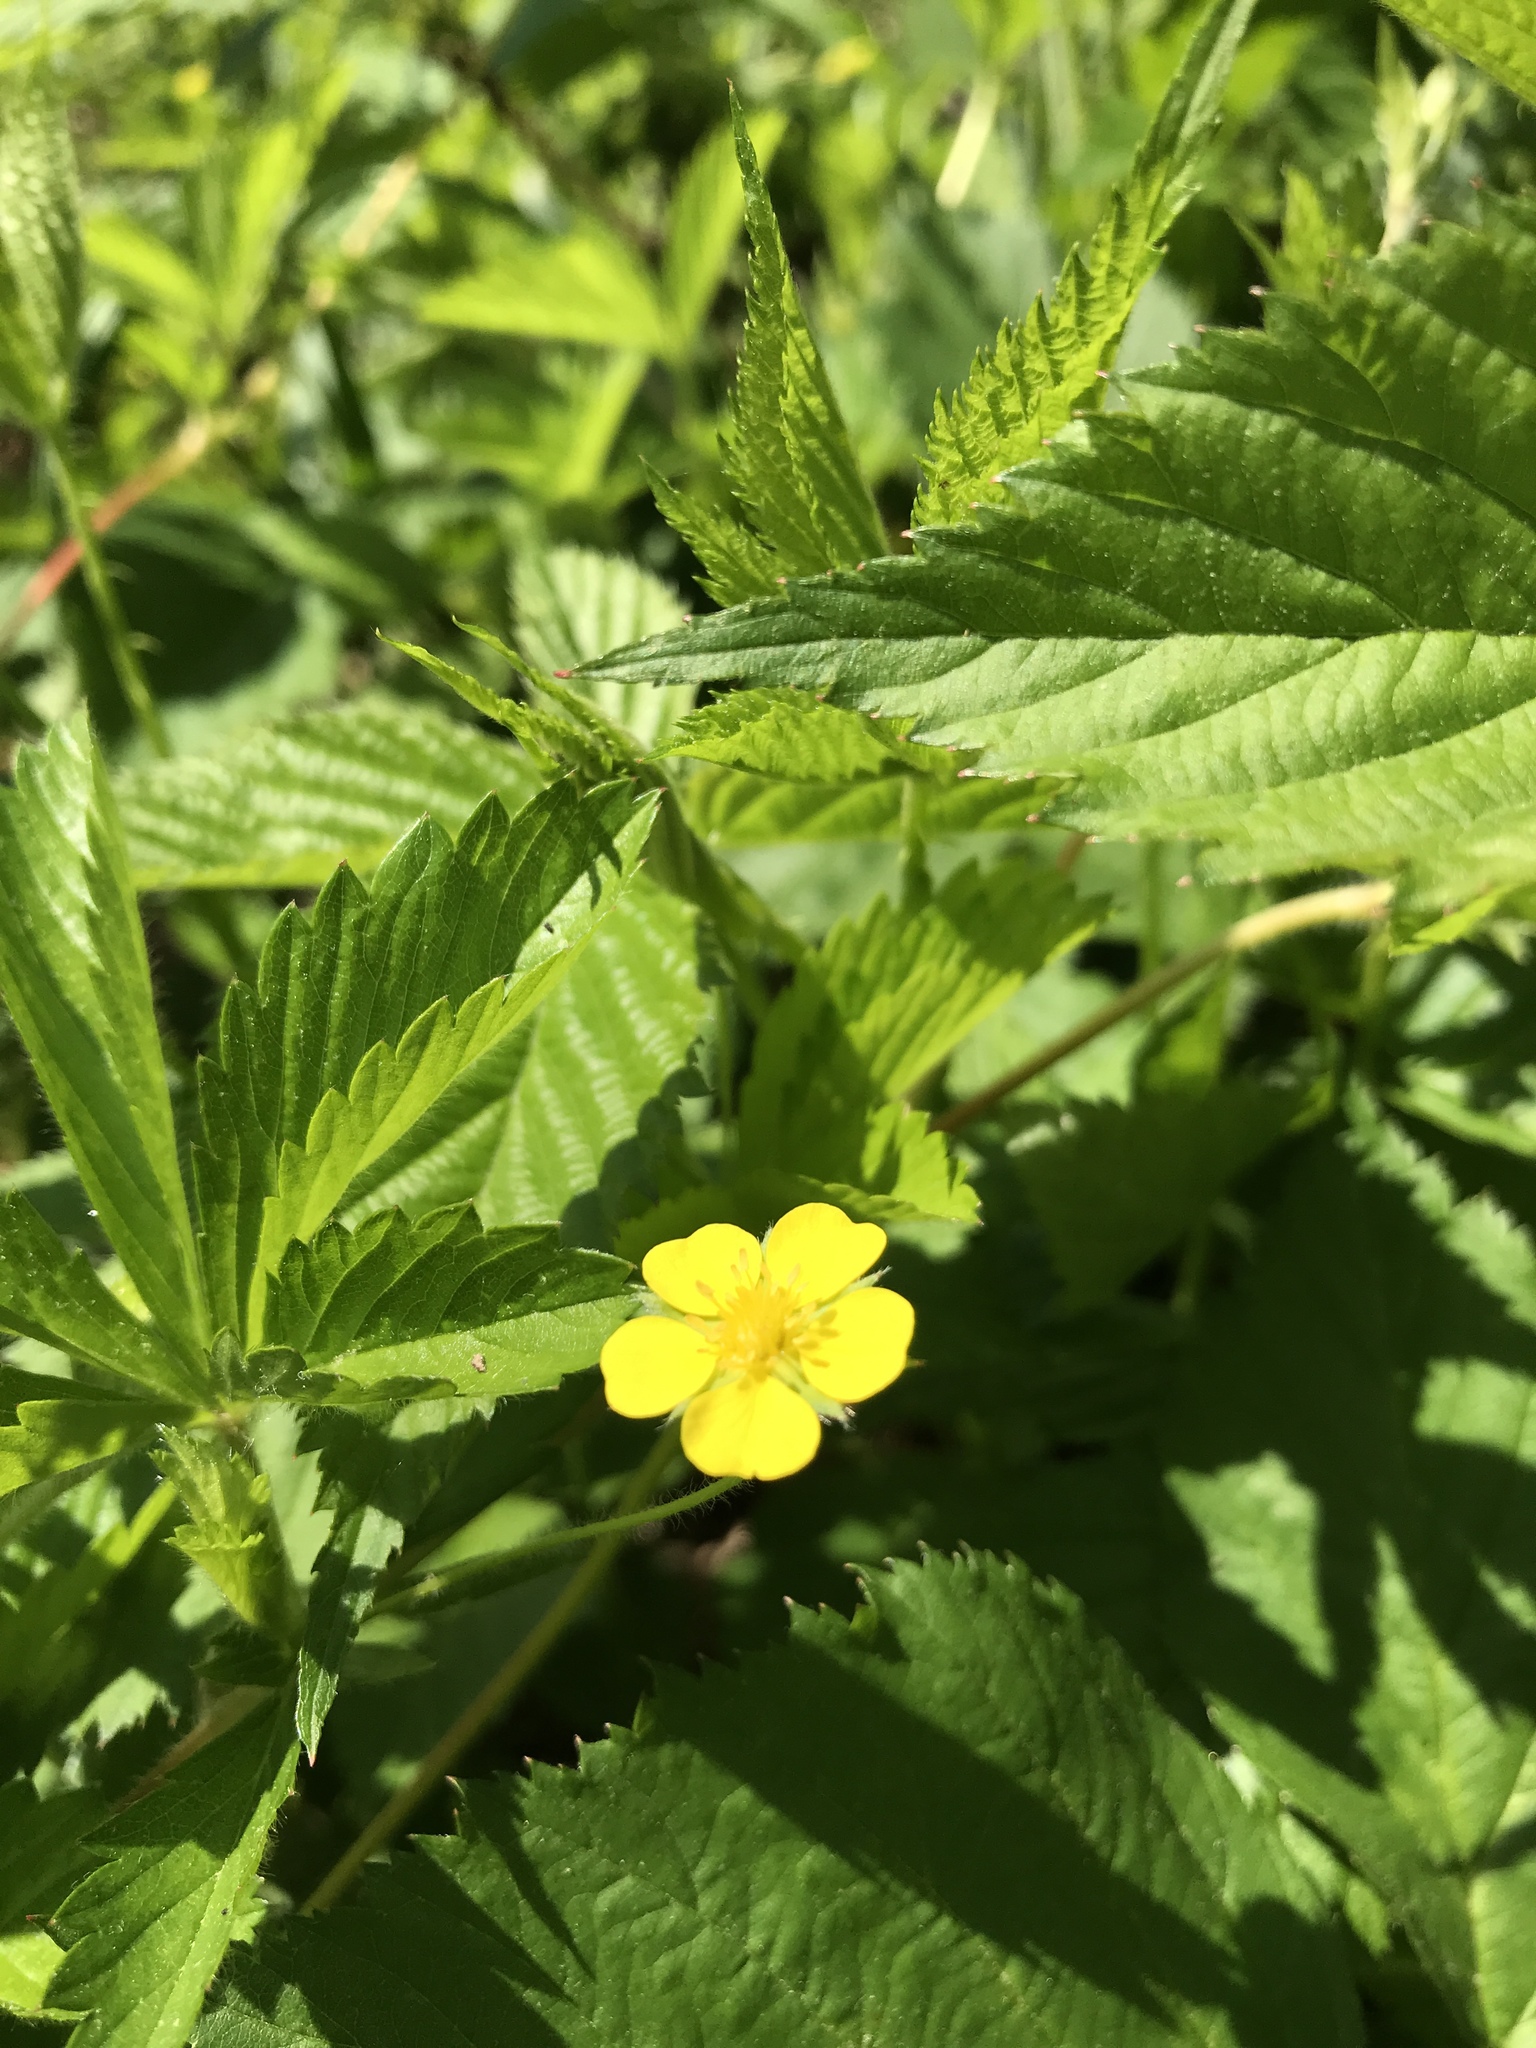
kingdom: Plantae
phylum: Tracheophyta
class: Magnoliopsida
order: Rosales
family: Rosaceae
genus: Potentilla
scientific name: Potentilla simplex
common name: Old field cinquefoil
